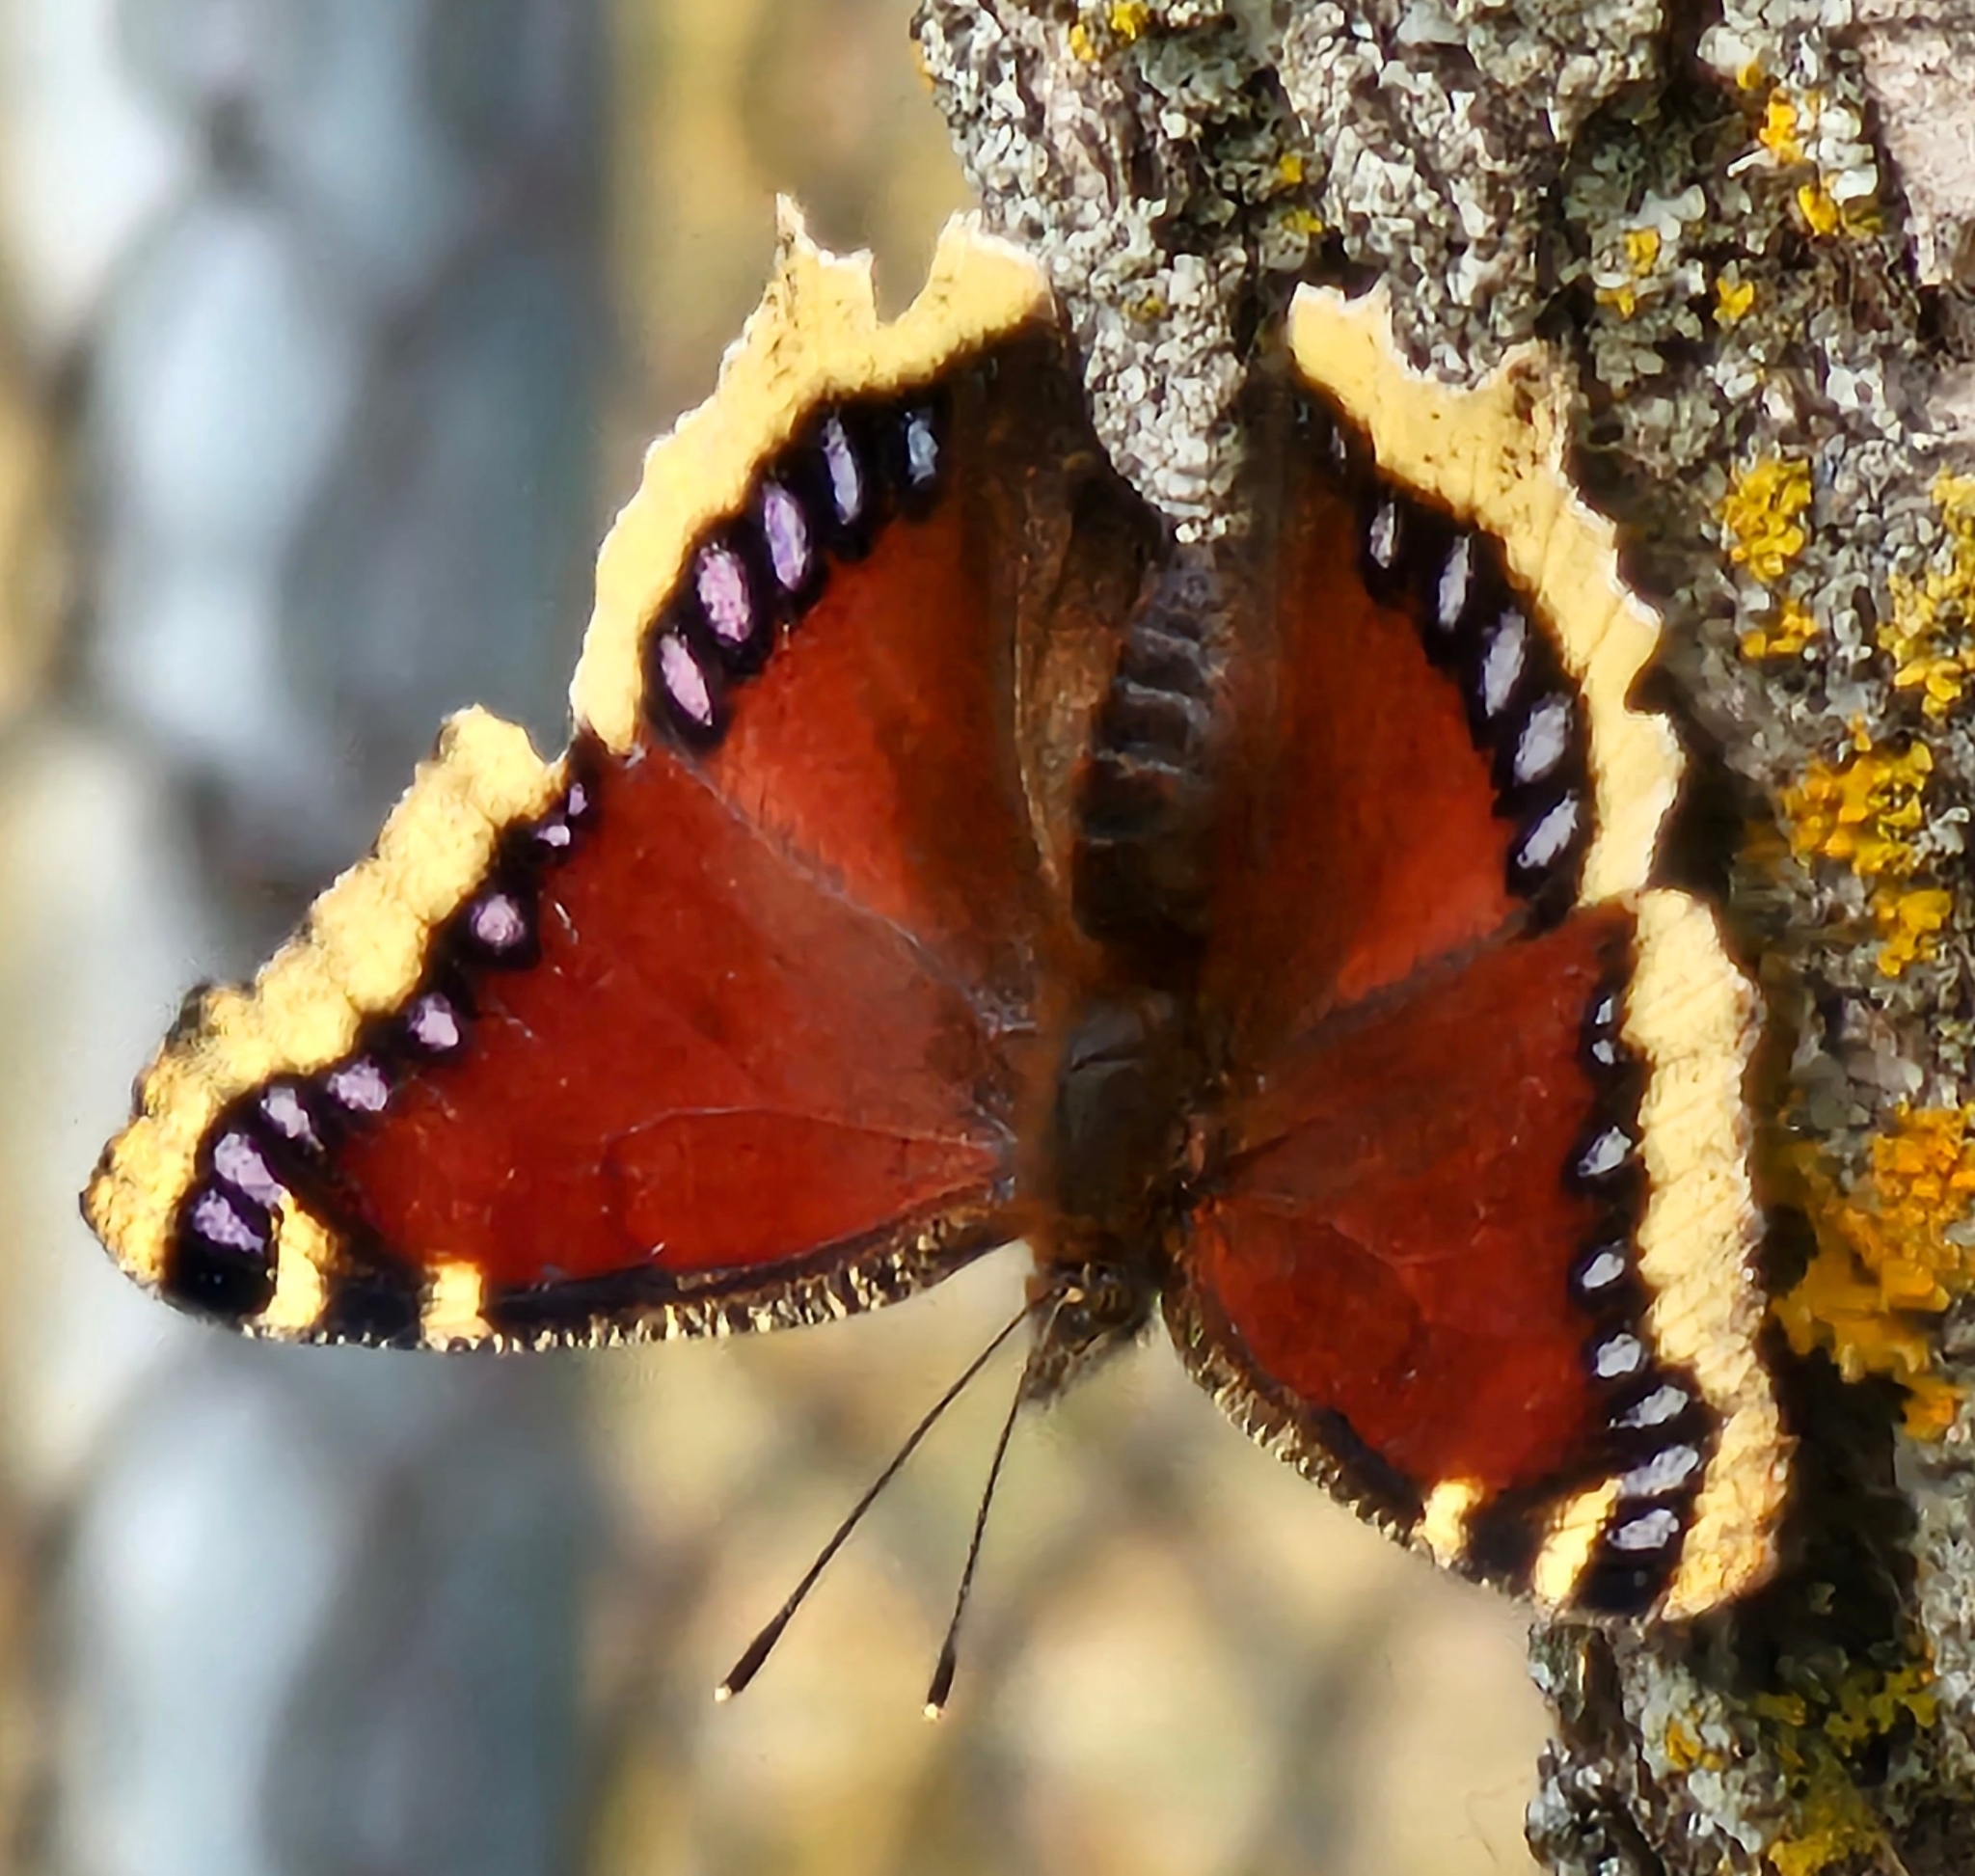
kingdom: Animalia
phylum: Arthropoda
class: Insecta
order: Lepidoptera
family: Nymphalidae
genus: Nymphalis
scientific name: Nymphalis antiopa
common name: Camberwell beauty
